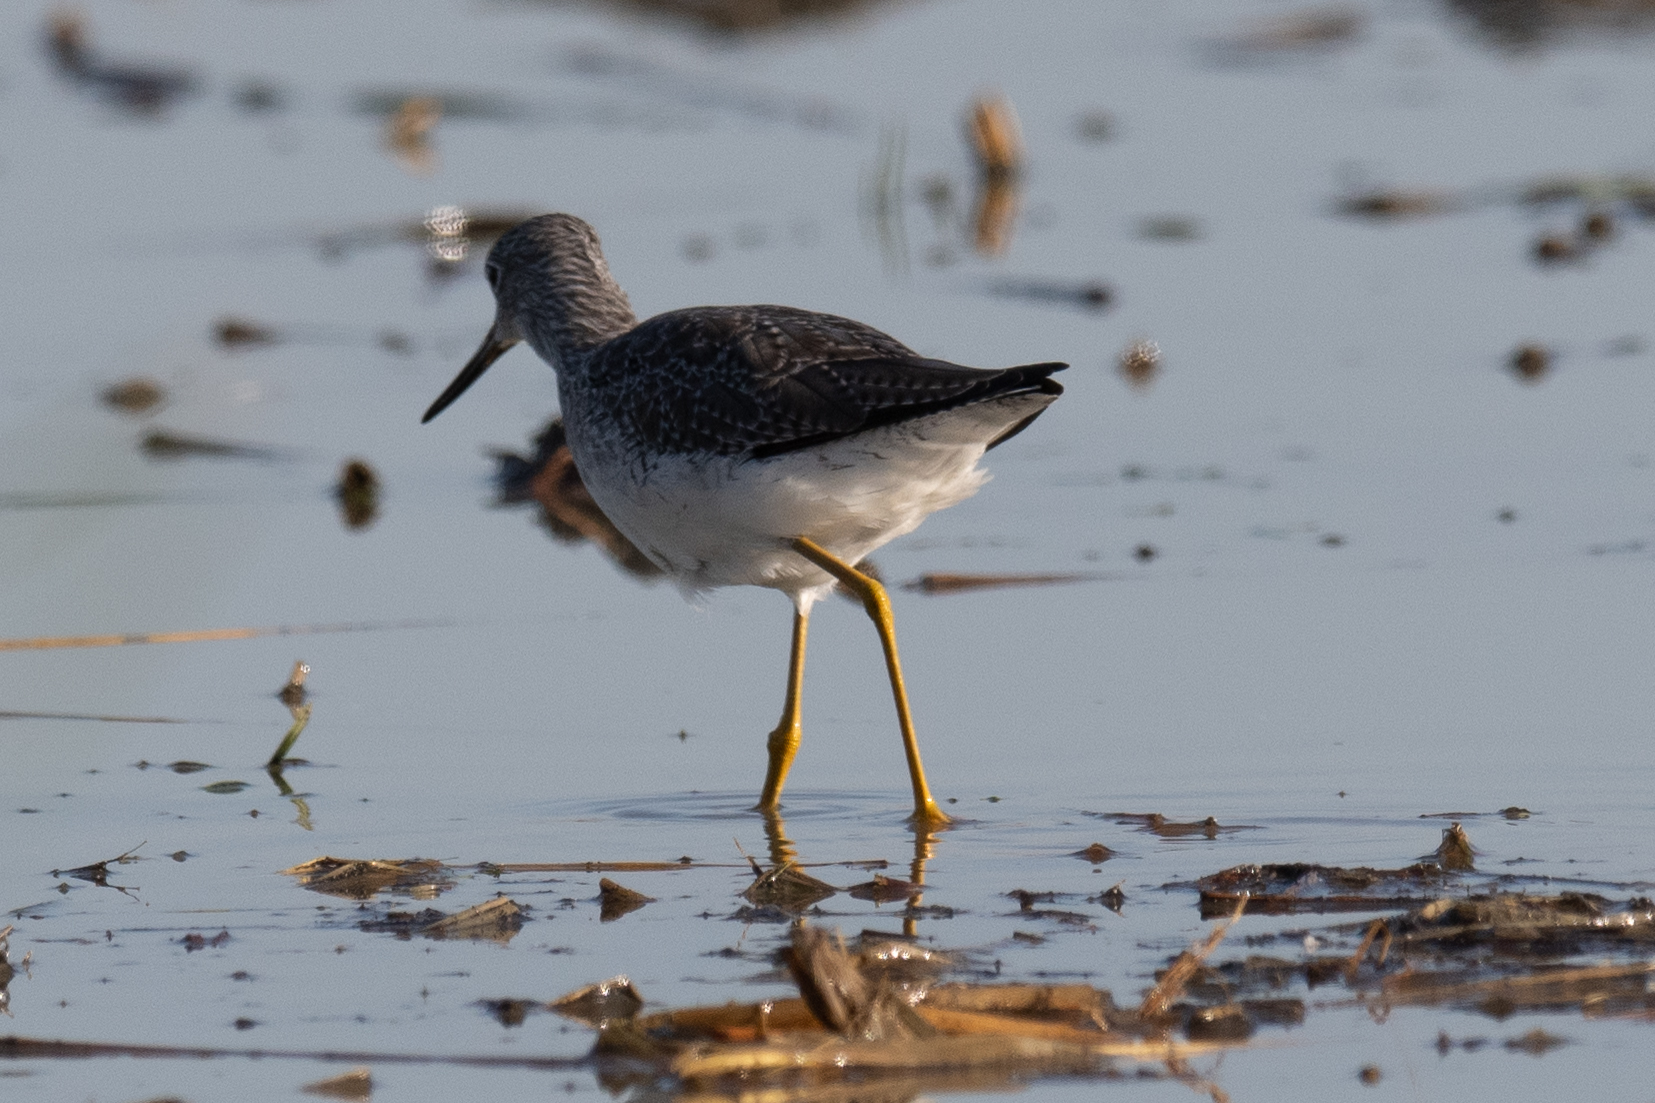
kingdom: Animalia
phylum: Chordata
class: Aves
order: Charadriiformes
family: Scolopacidae
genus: Tringa
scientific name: Tringa melanoleuca
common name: Greater yellowlegs
